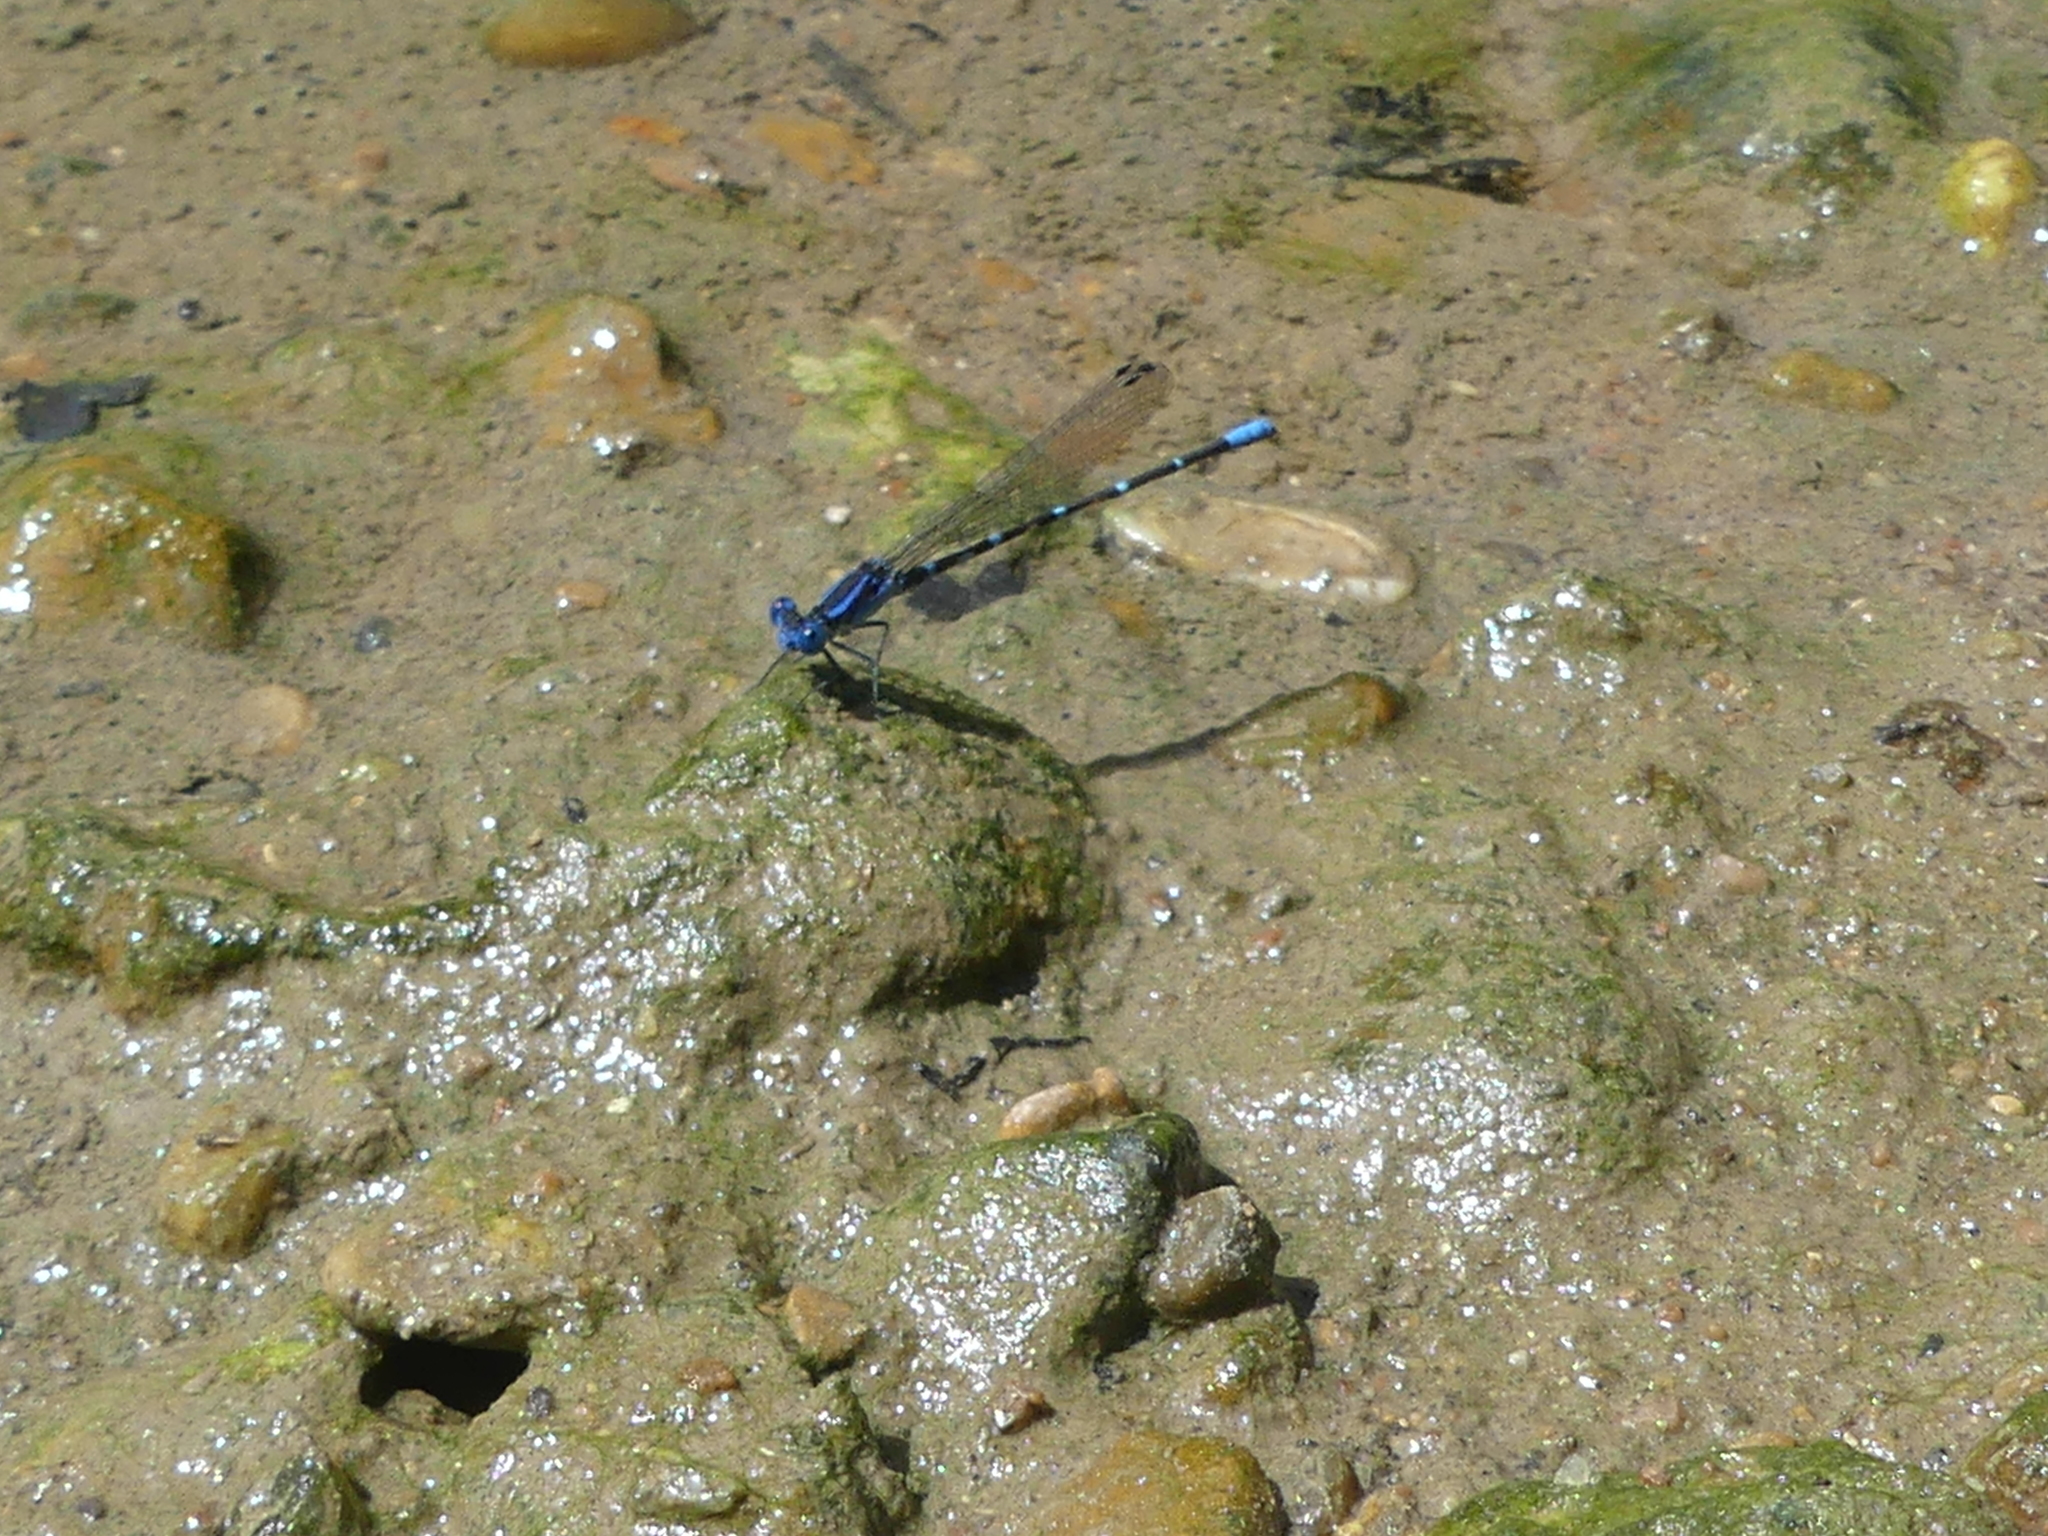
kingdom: Animalia
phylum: Arthropoda
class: Insecta
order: Odonata
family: Coenagrionidae
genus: Argia
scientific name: Argia sedula
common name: Blue-ringed dancer
